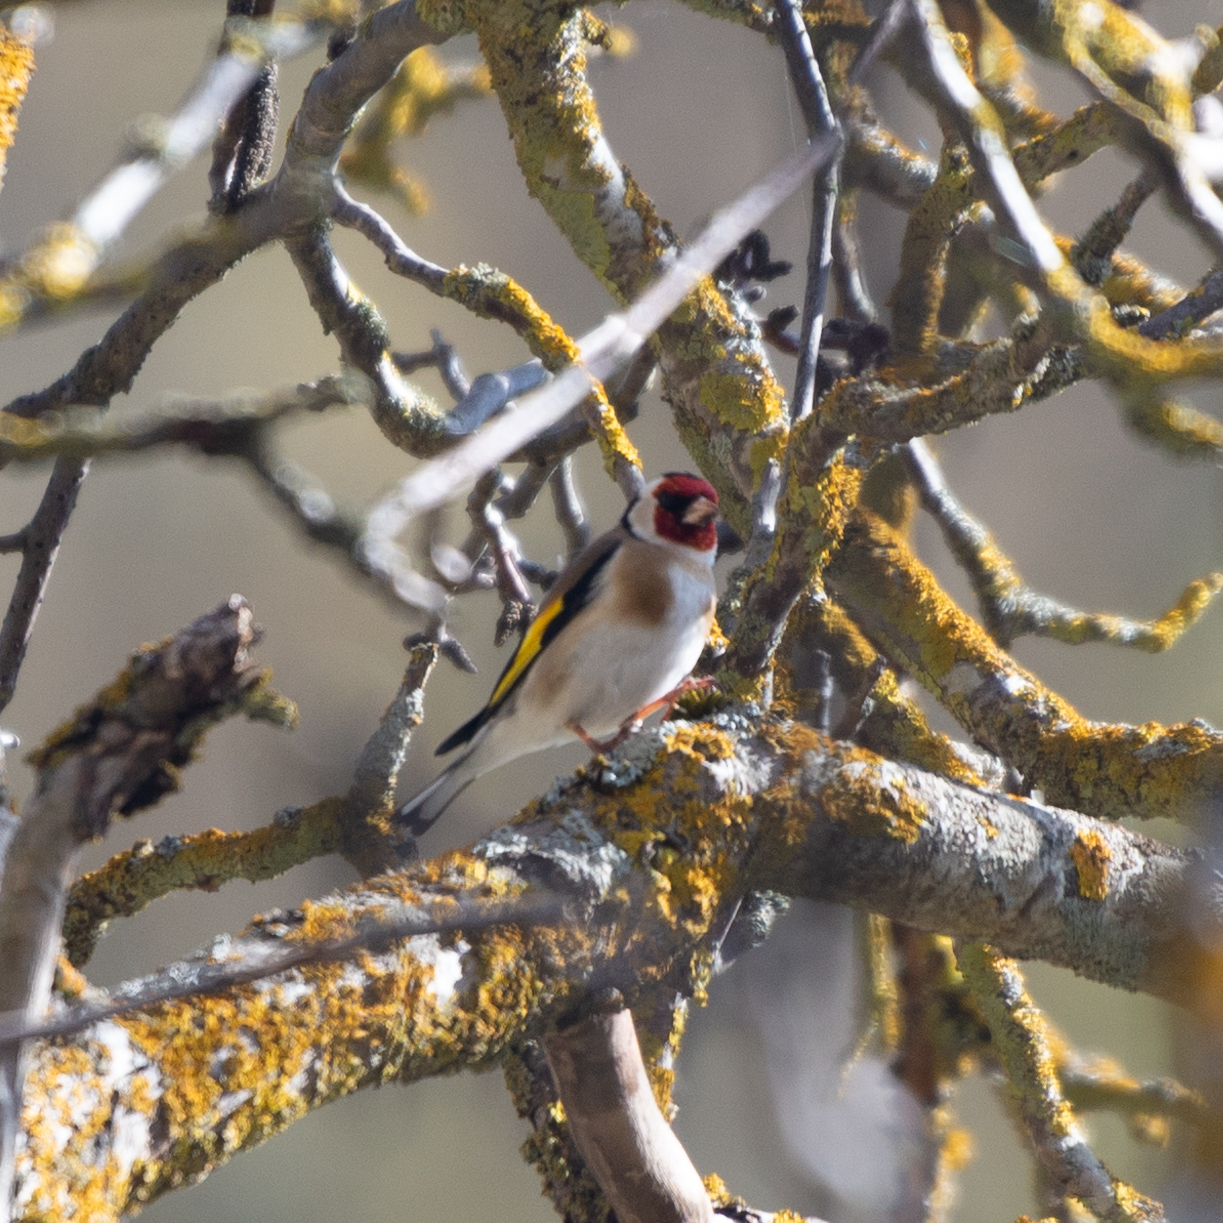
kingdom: Animalia
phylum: Chordata
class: Aves
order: Passeriformes
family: Fringillidae
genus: Carduelis
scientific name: Carduelis carduelis
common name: European goldfinch
